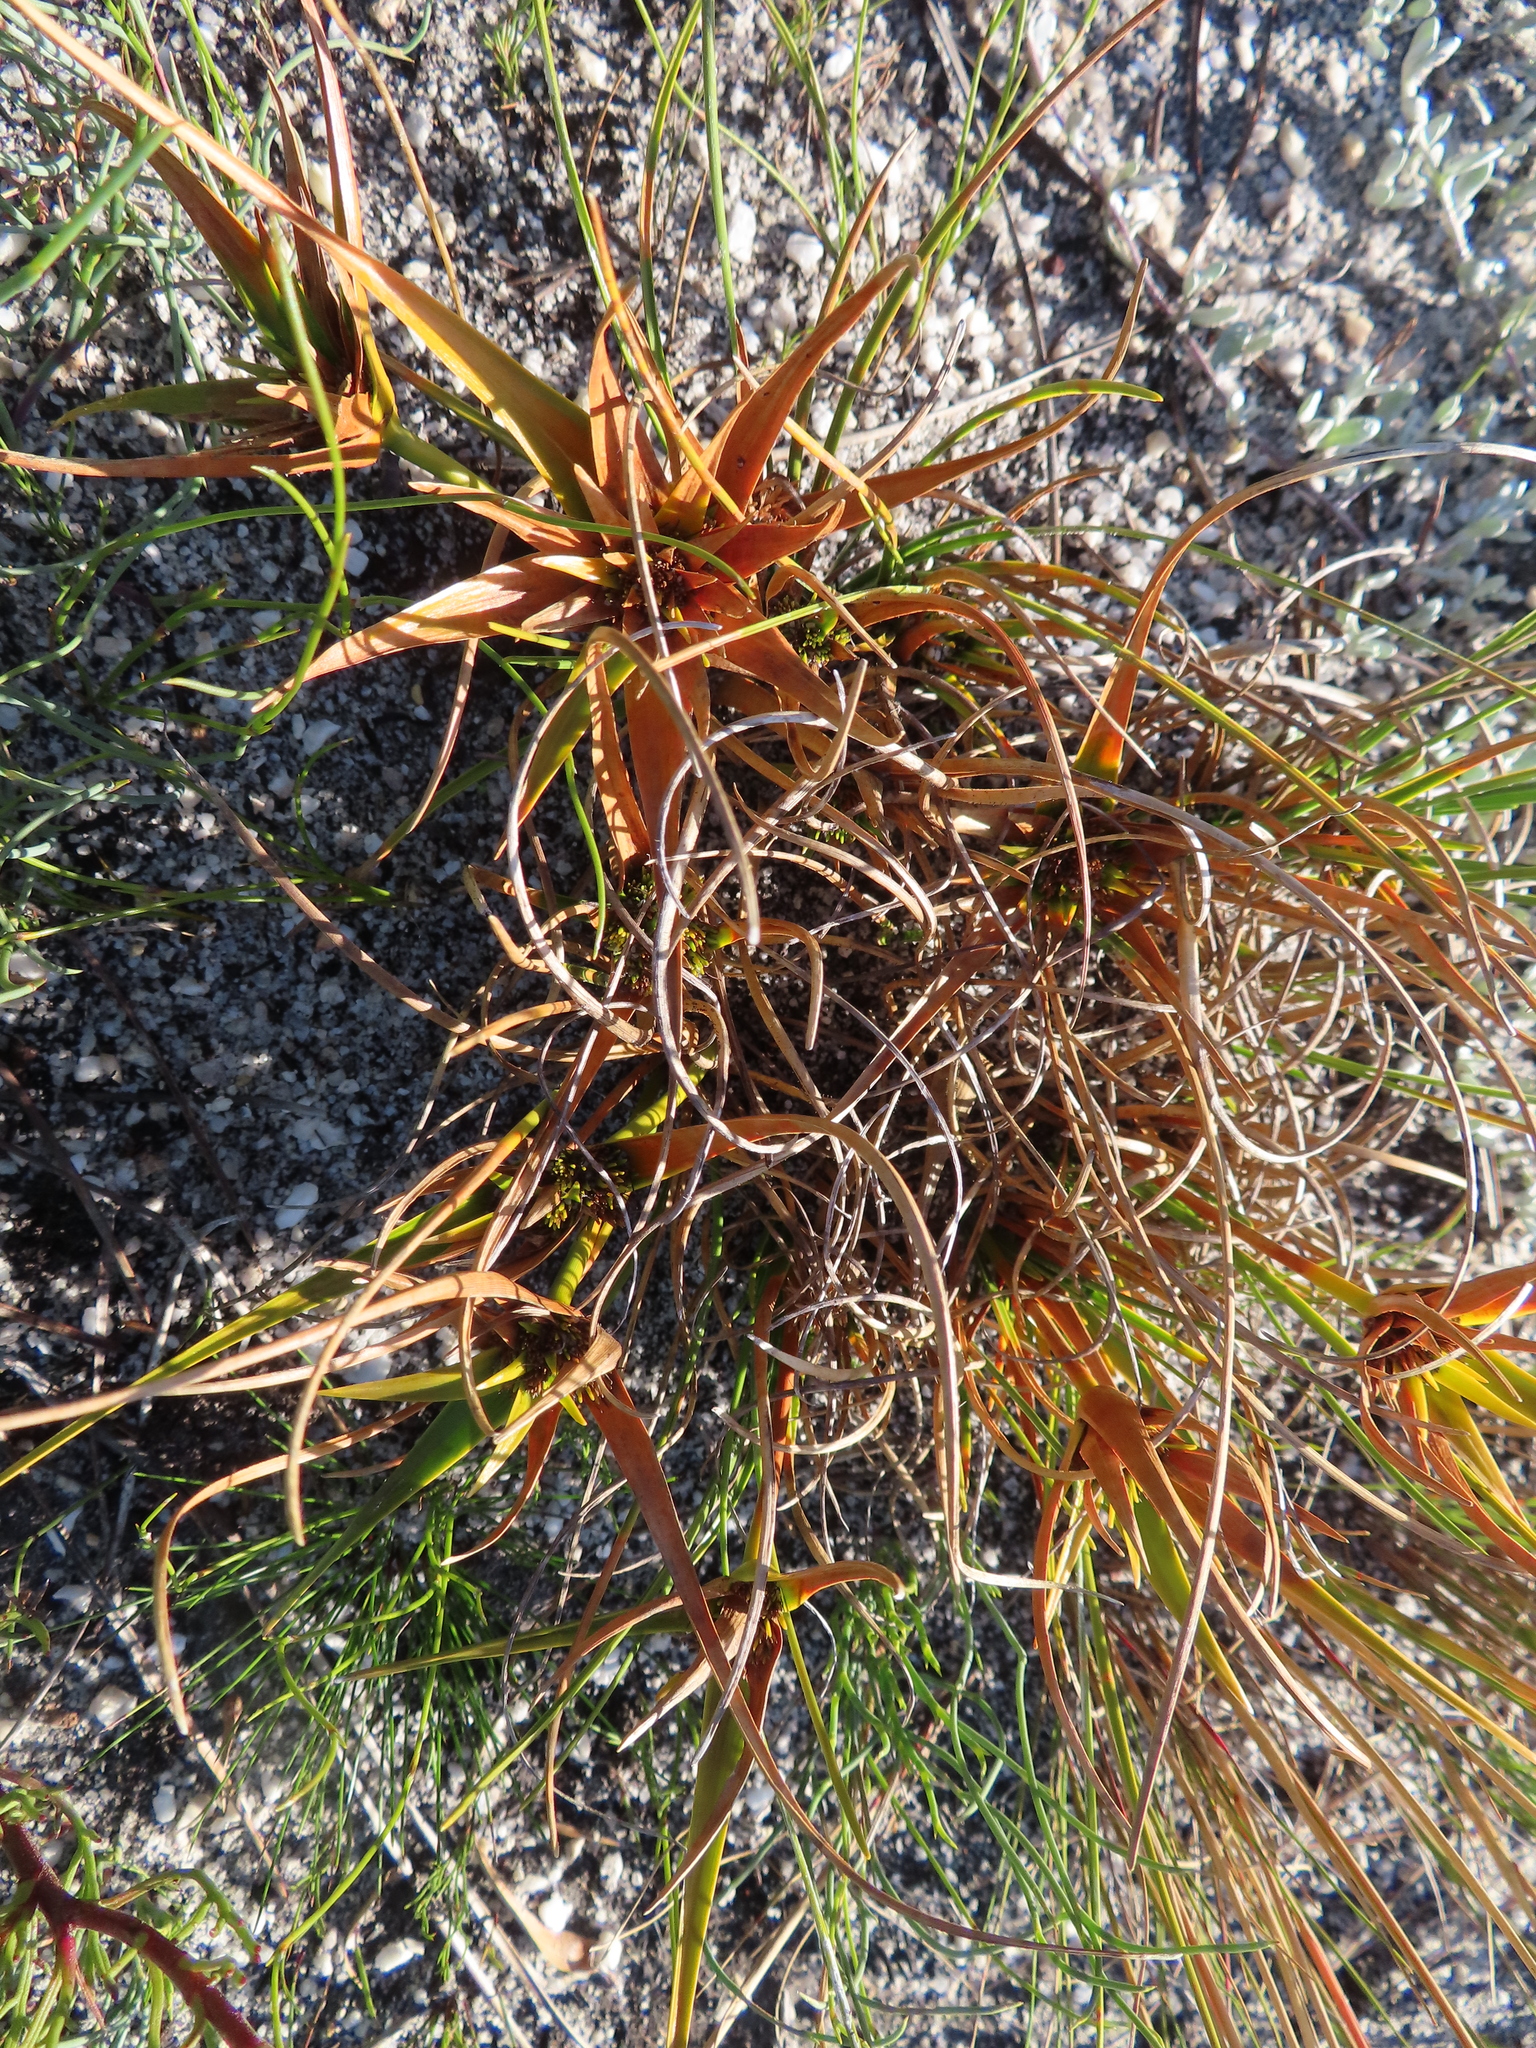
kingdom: Plantae
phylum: Tracheophyta
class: Liliopsida
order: Poales
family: Cyperaceae
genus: Ficinia
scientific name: Ficinia radiata
